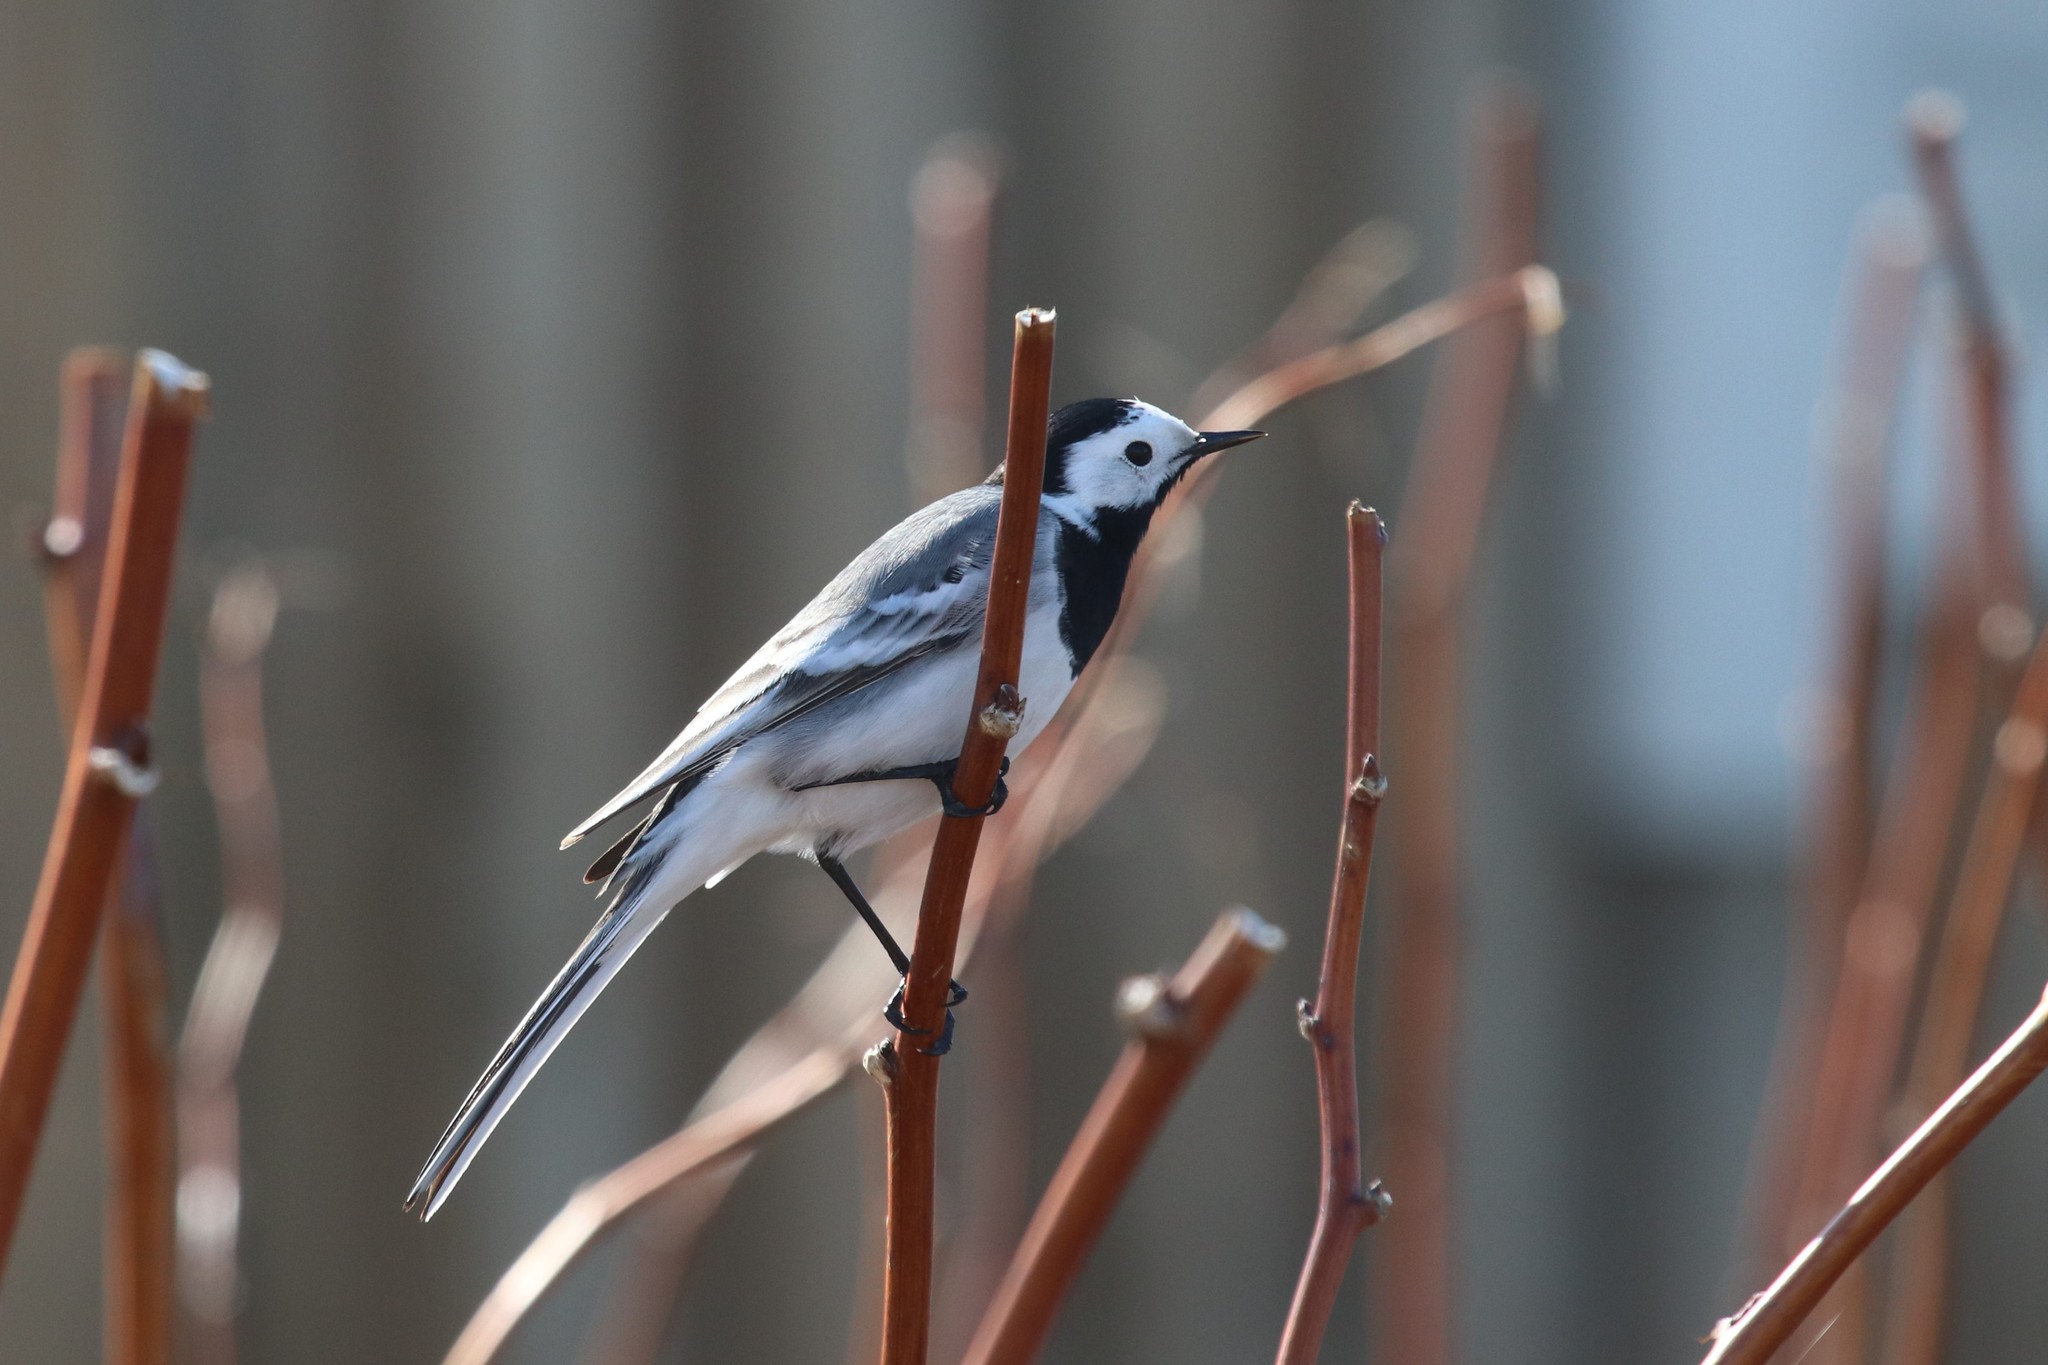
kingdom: Animalia
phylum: Chordata
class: Aves
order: Passeriformes
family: Motacillidae
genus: Motacilla
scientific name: Motacilla alba
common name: White wagtail
